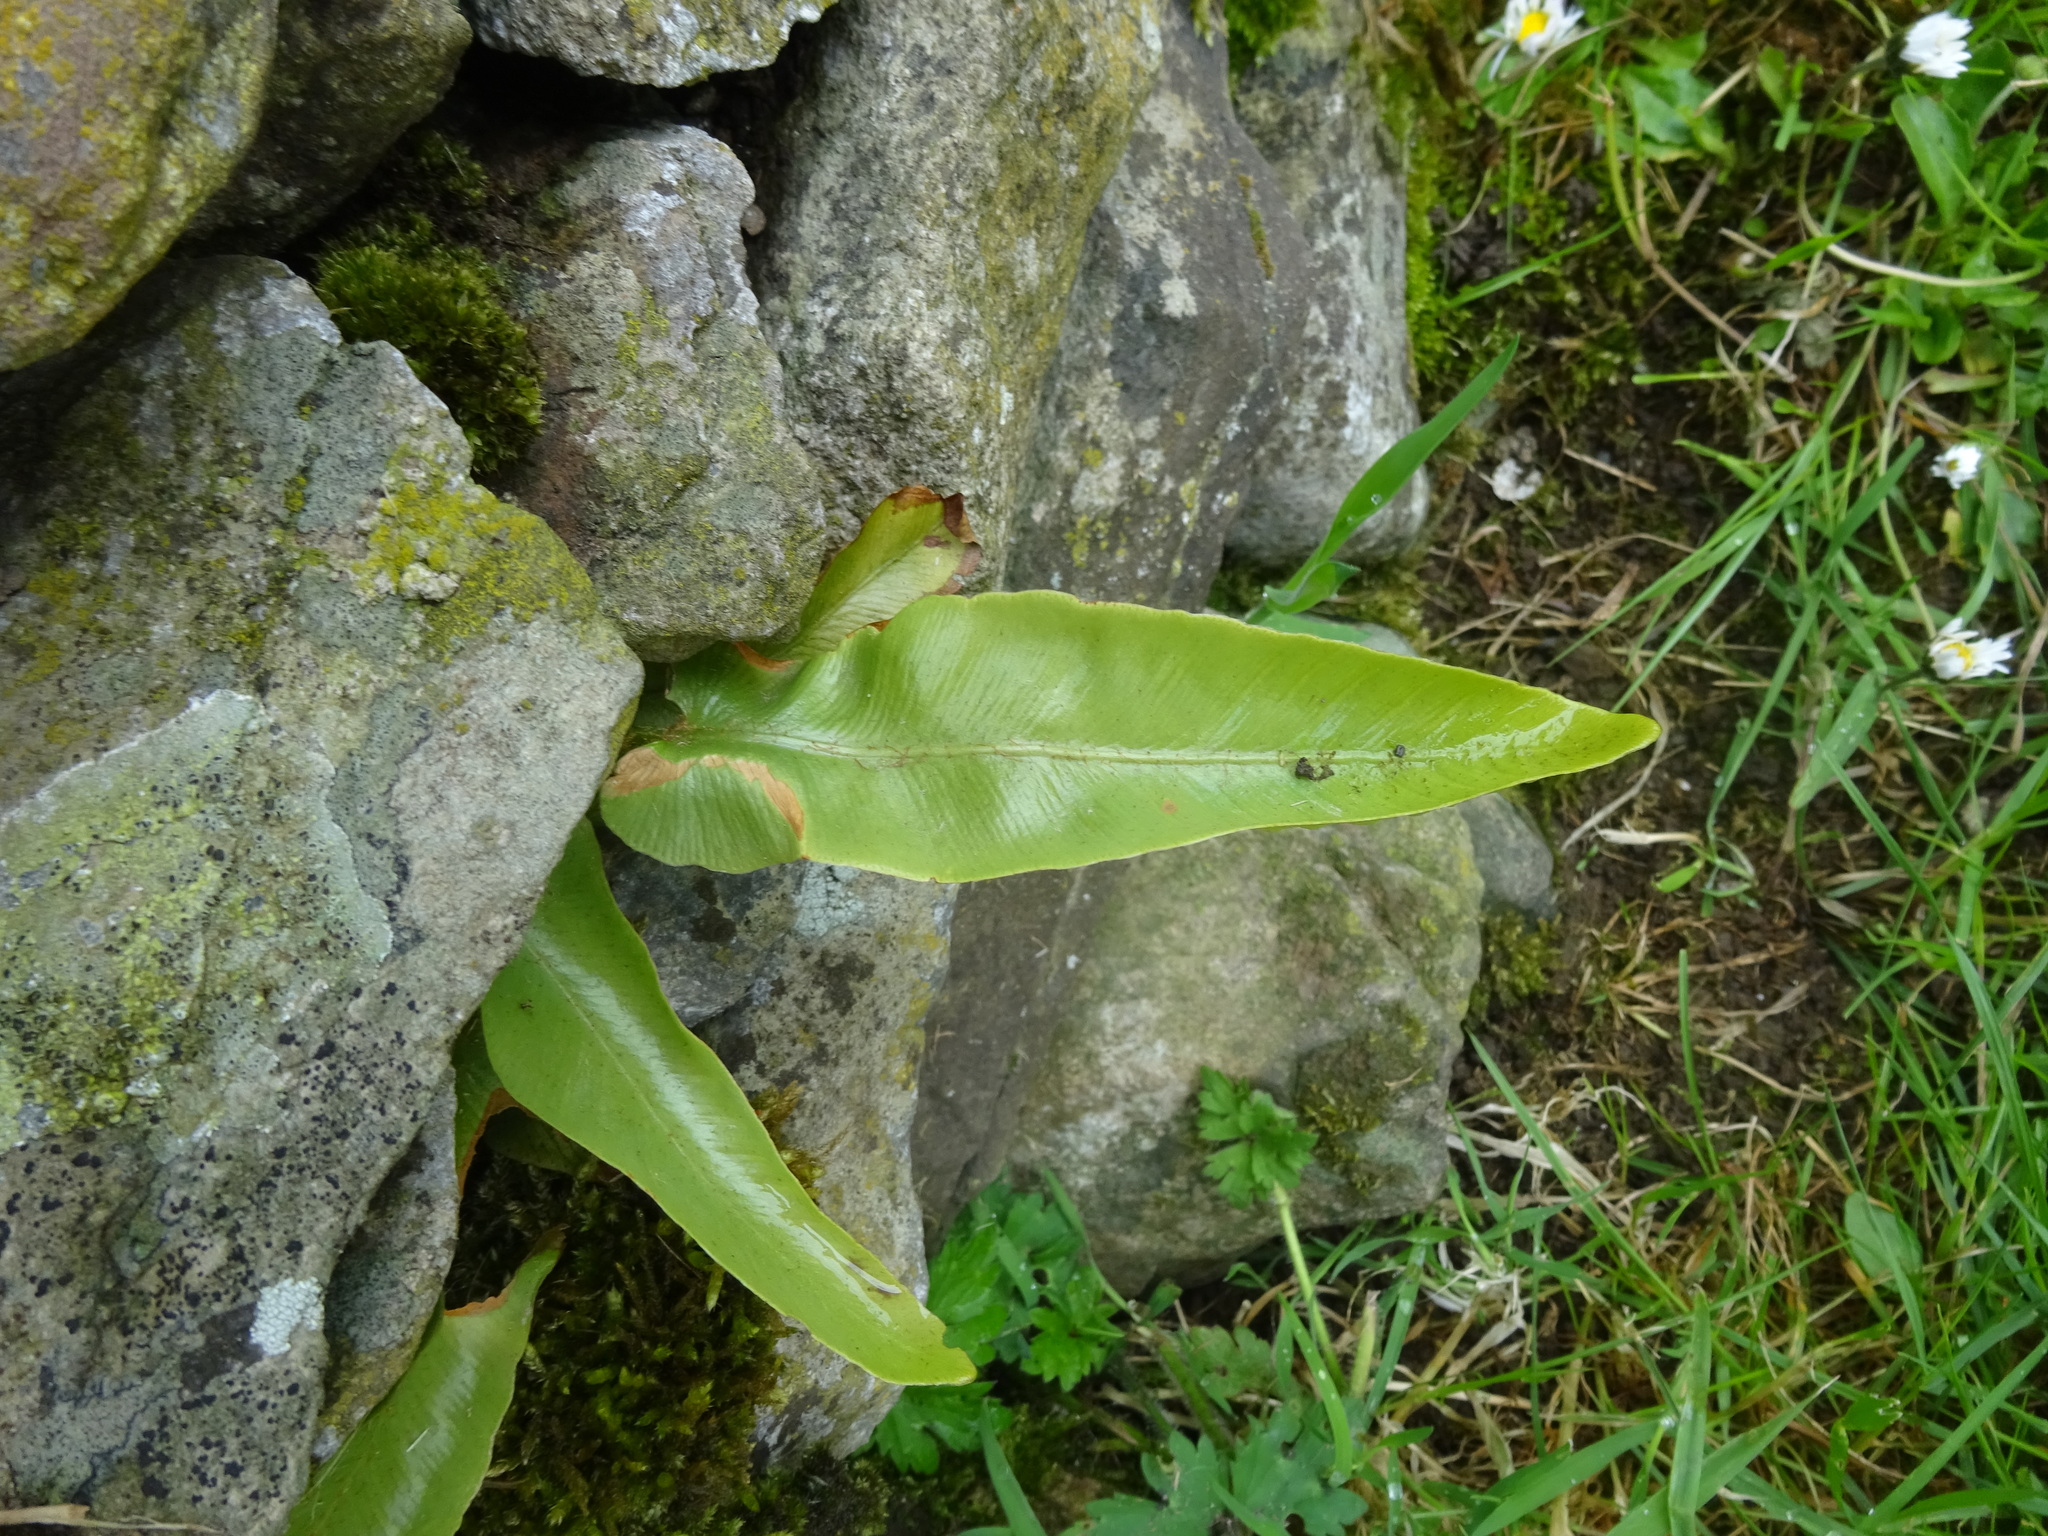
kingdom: Plantae
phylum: Tracheophyta
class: Polypodiopsida
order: Polypodiales
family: Aspleniaceae
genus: Asplenium
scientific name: Asplenium scolopendrium
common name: Hart's-tongue fern
